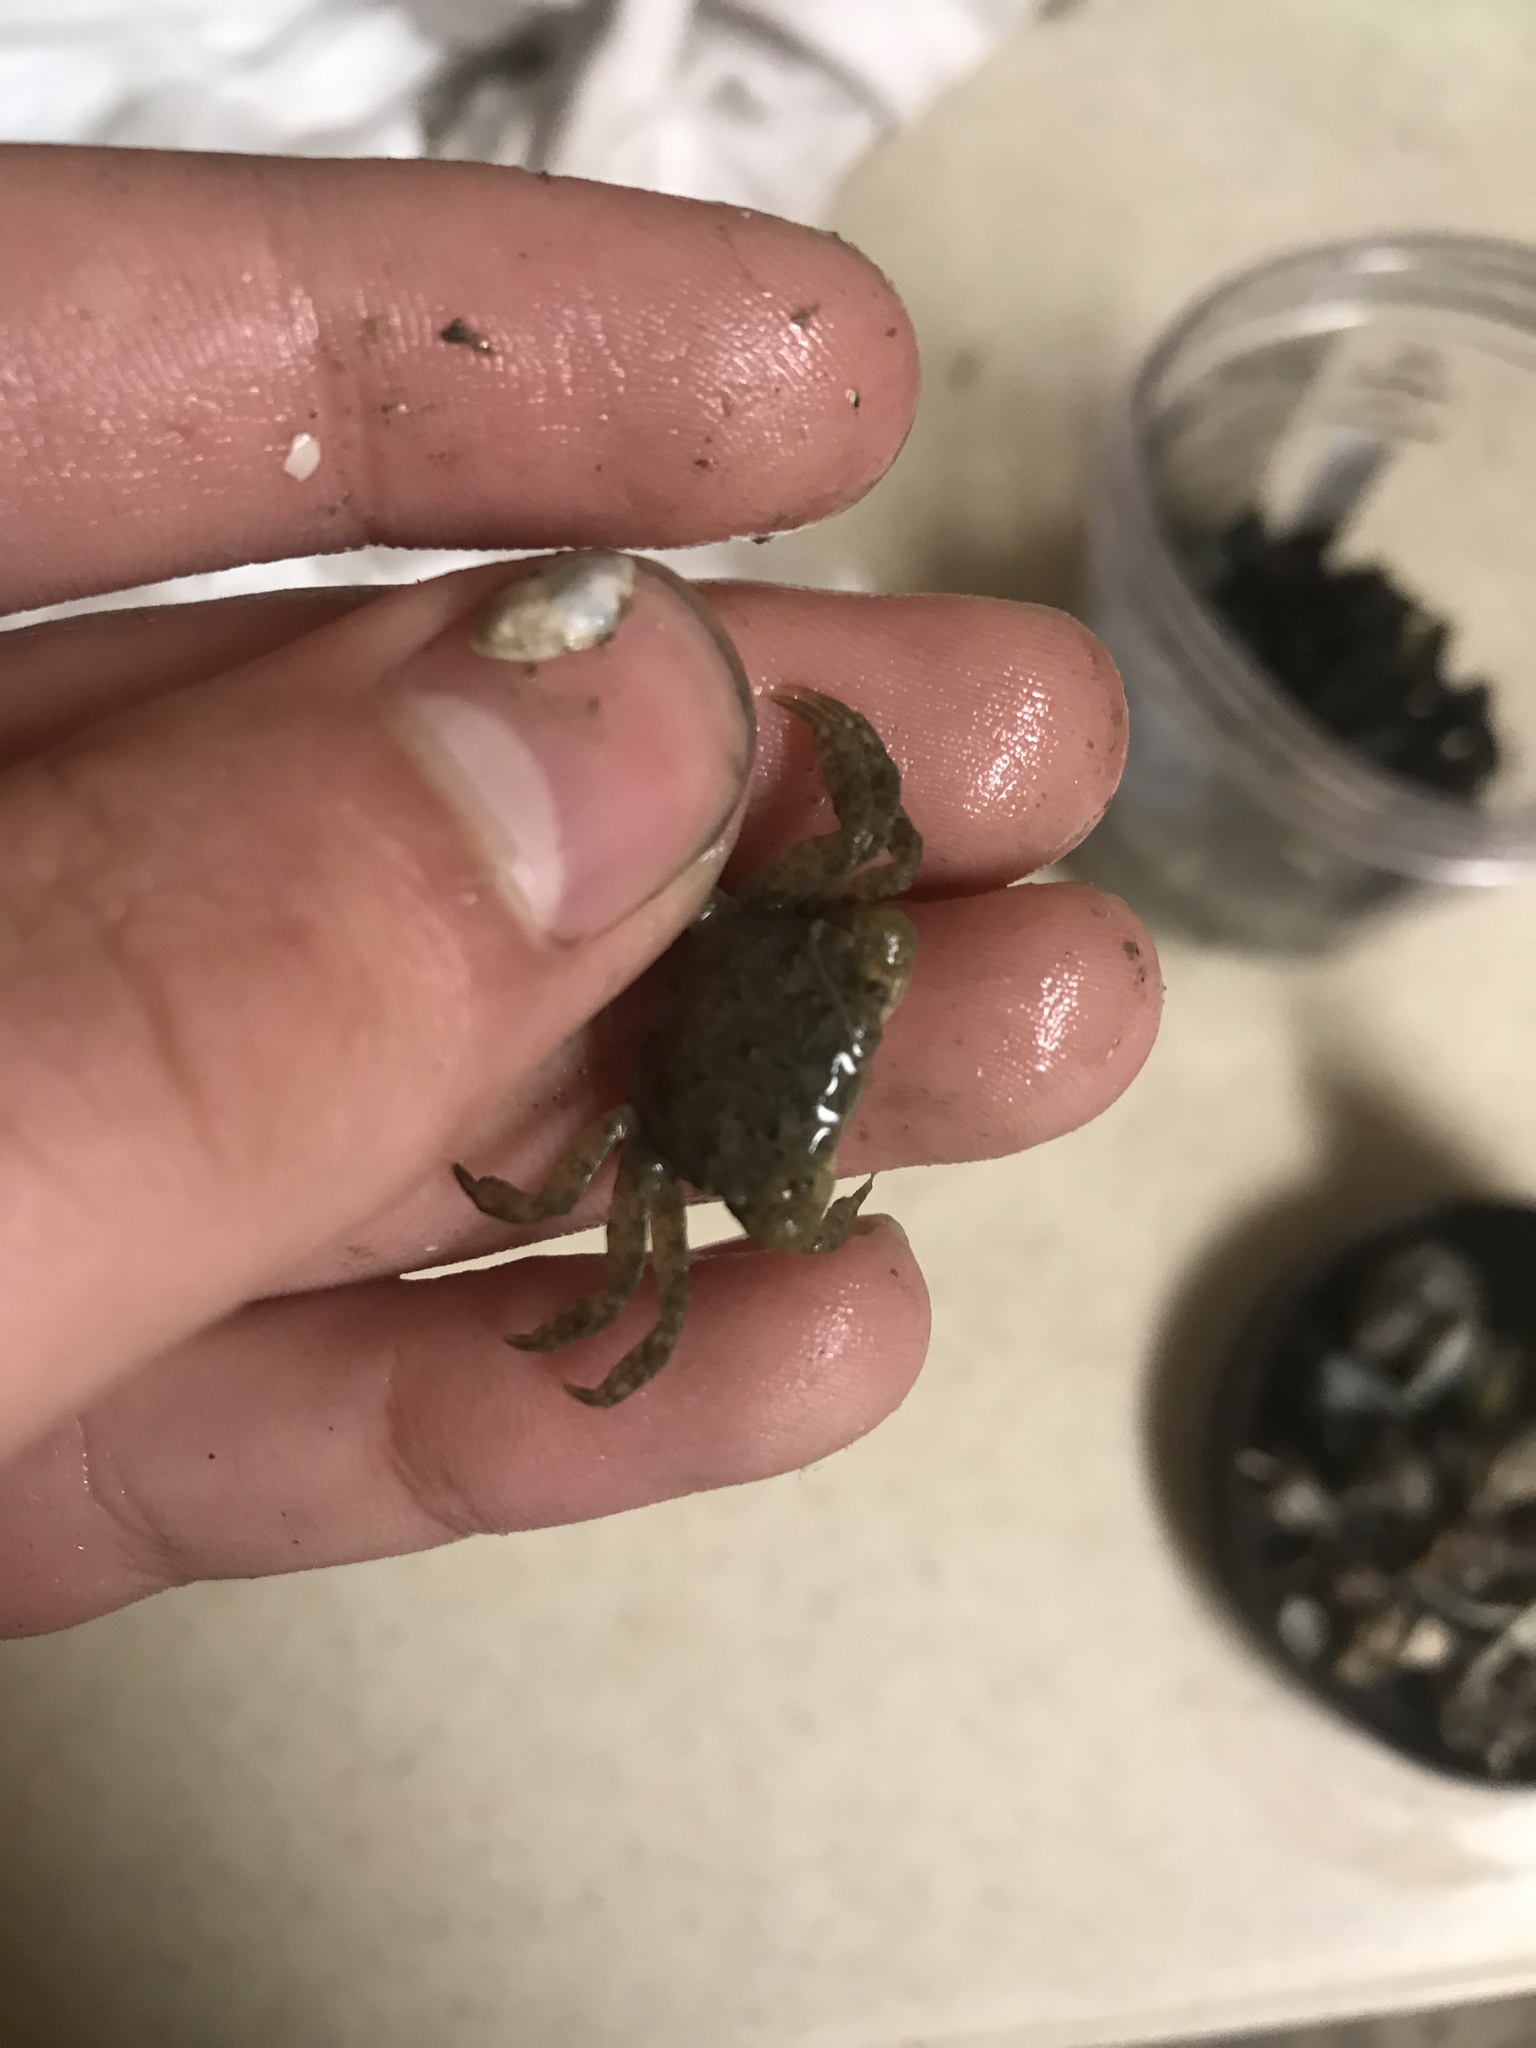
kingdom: Animalia
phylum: Arthropoda
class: Malacostraca
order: Decapoda
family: Varunidae
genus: Hemigrapsus
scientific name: Hemigrapsus oregonensis
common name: Yellow shore crab
